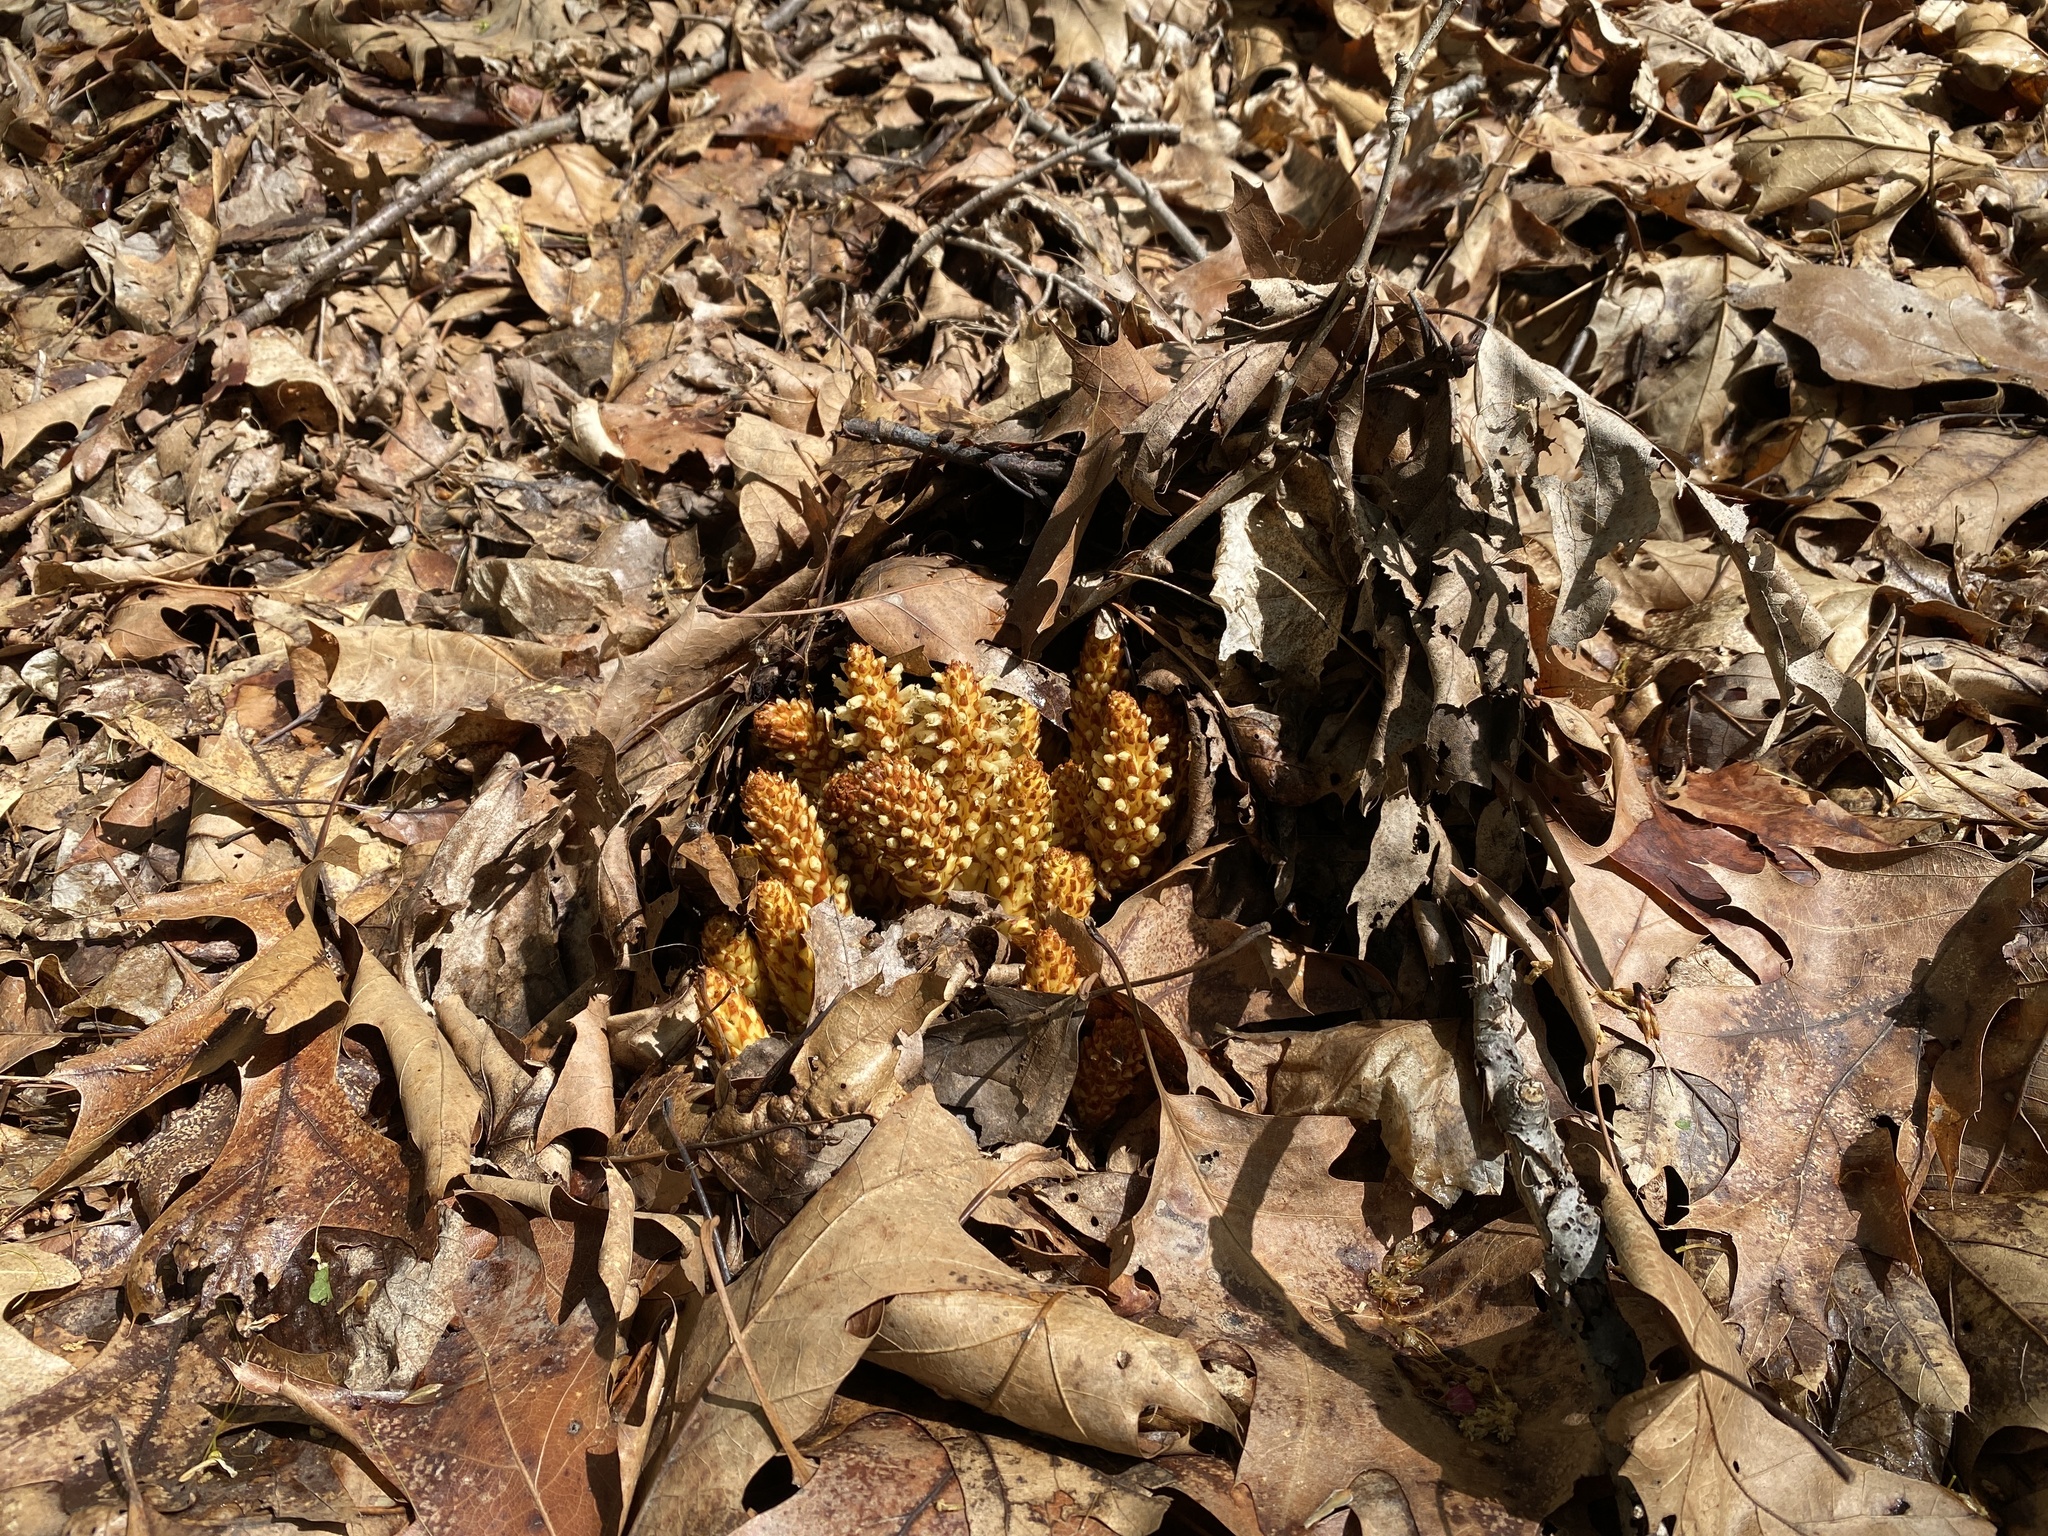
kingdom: Plantae
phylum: Tracheophyta
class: Magnoliopsida
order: Lamiales
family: Orobanchaceae
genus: Conopholis
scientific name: Conopholis americana
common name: American cancer-root
